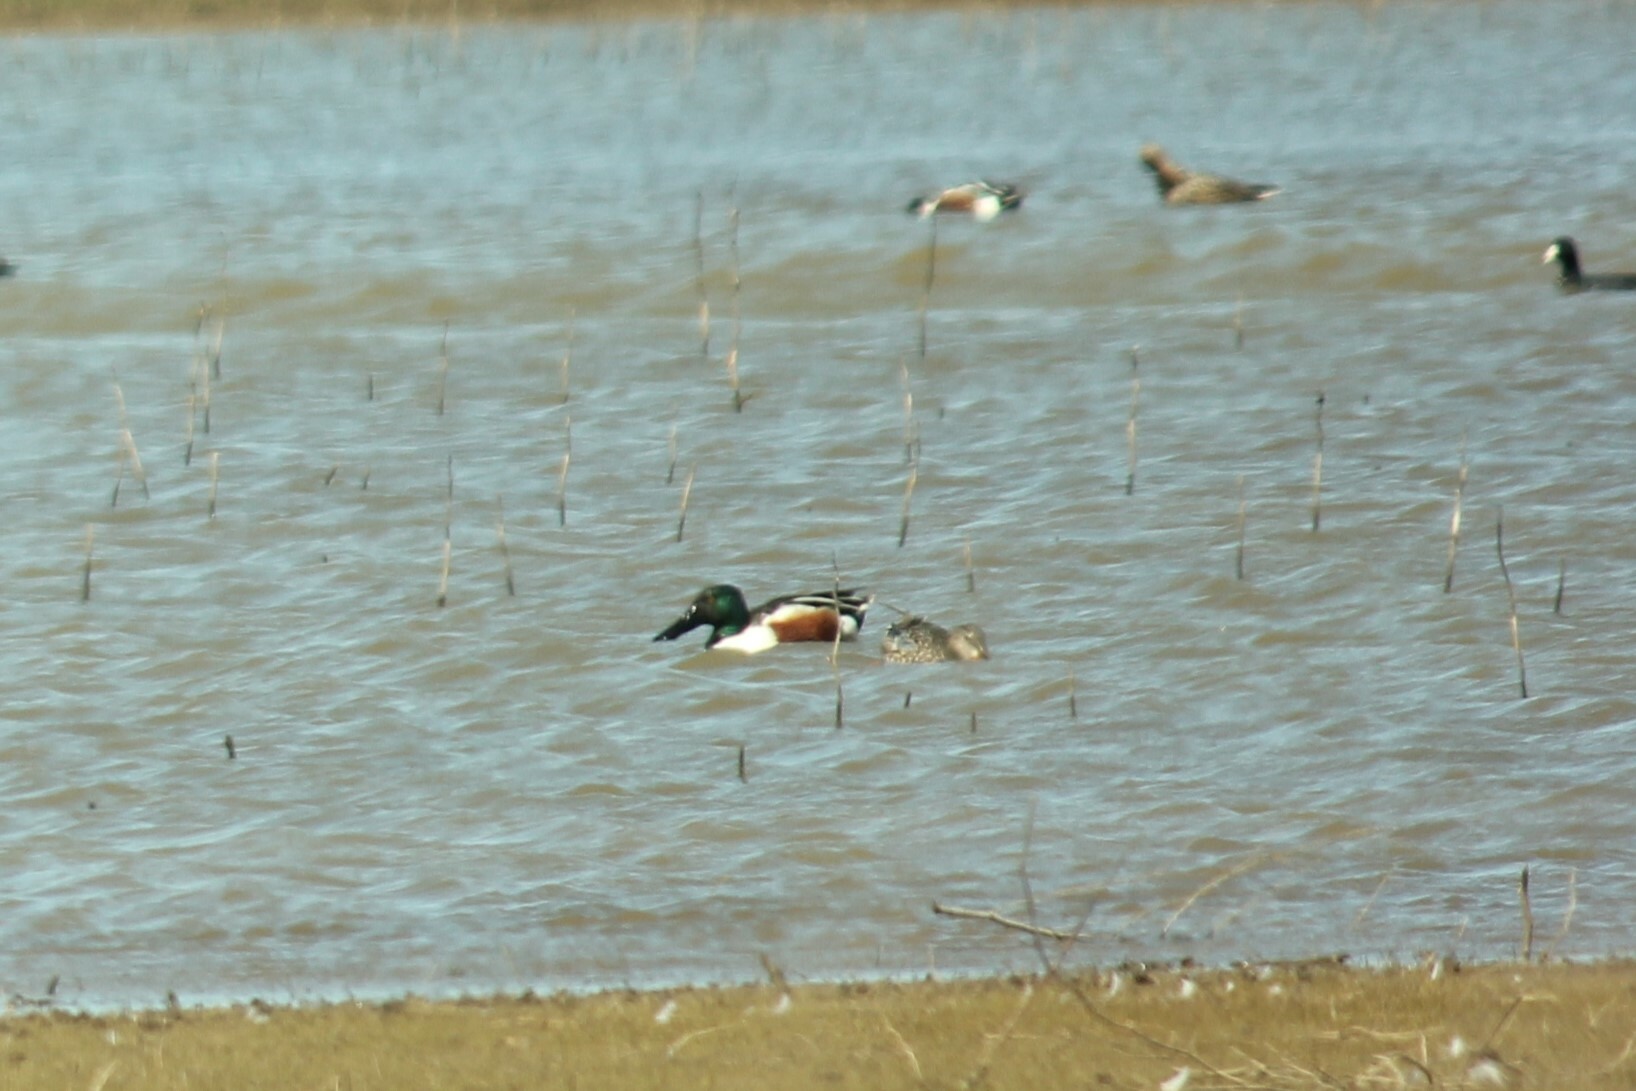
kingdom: Animalia
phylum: Chordata
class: Aves
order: Anseriformes
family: Anatidae
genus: Spatula
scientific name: Spatula clypeata
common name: Northern shoveler
